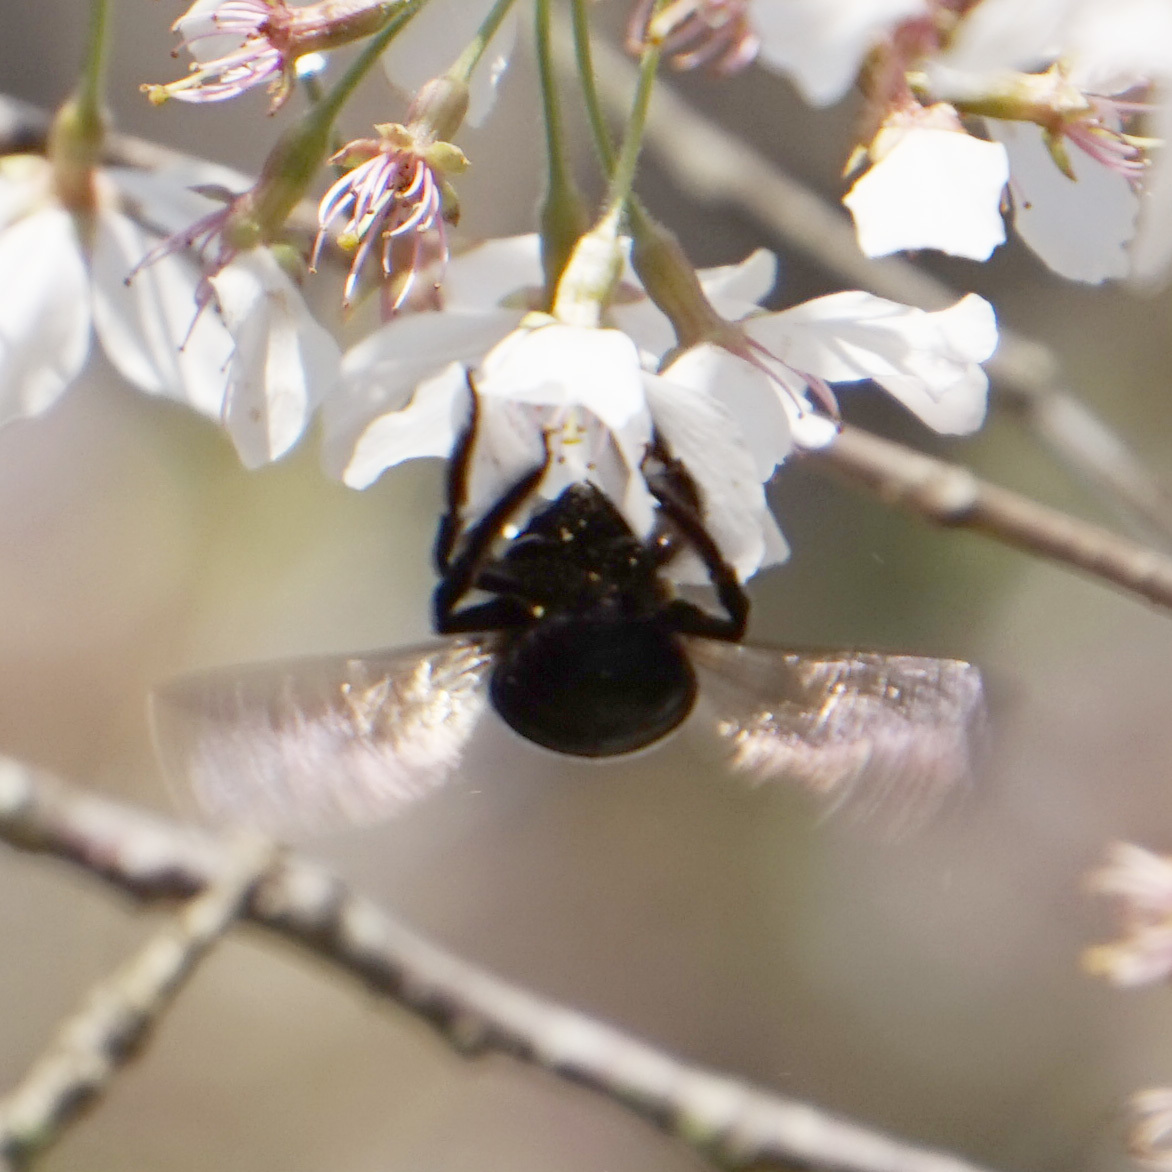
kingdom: Animalia
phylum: Arthropoda
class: Insecta
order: Hymenoptera
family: Apidae
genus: Xylocopa
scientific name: Xylocopa virginica
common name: Carpenter bee
